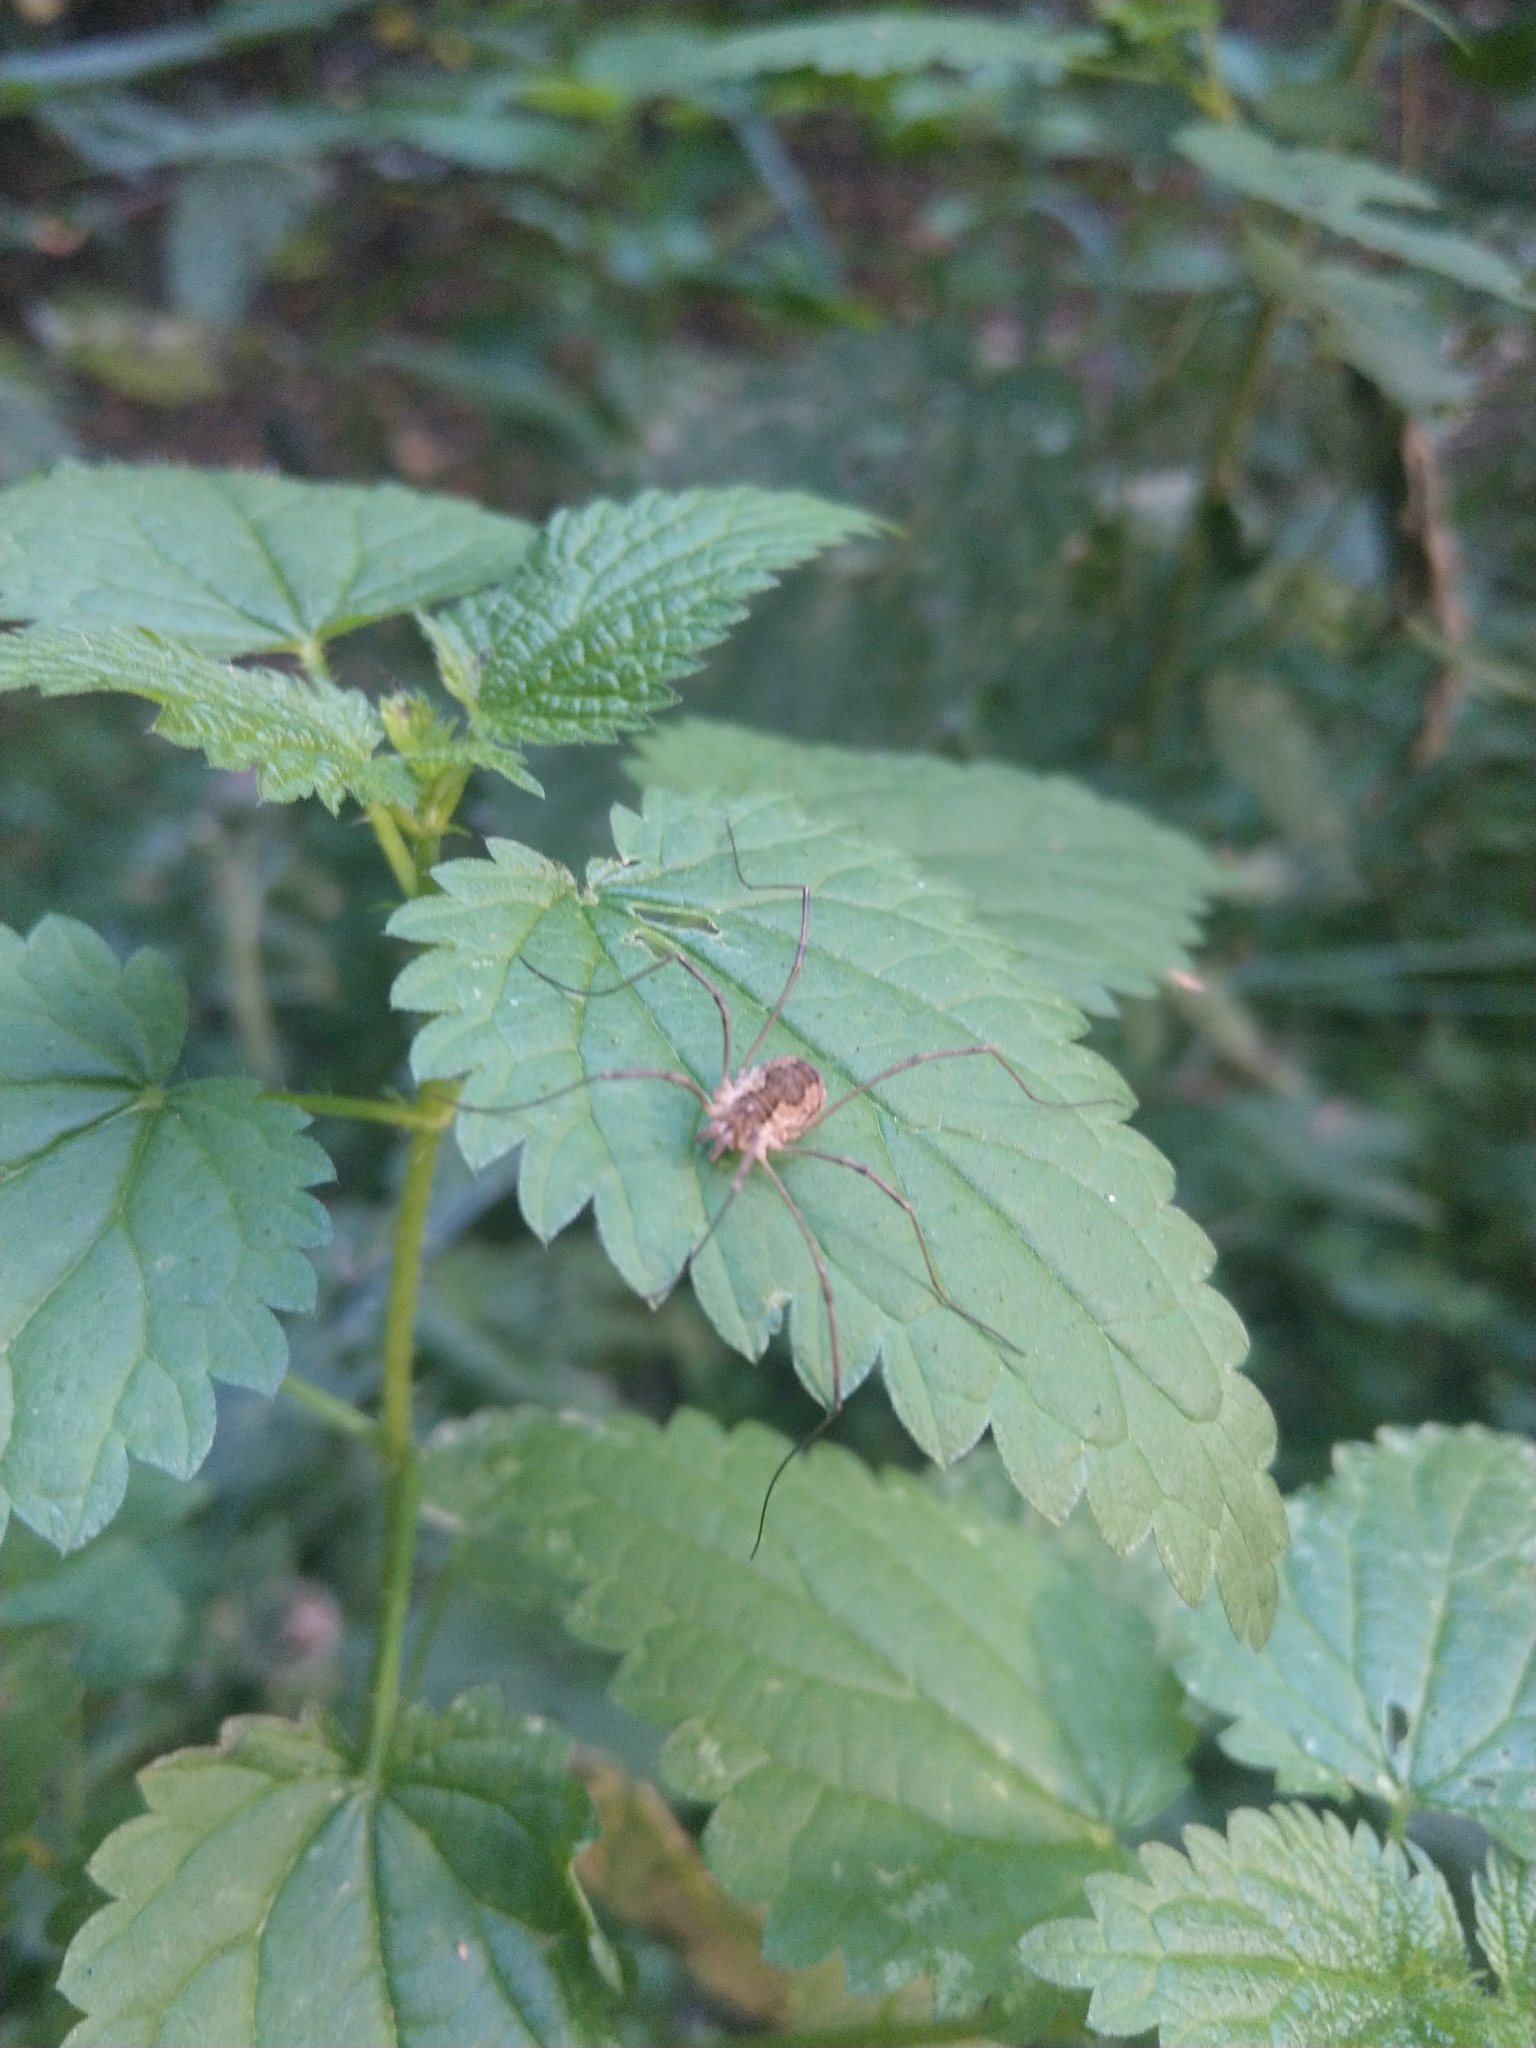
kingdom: Animalia
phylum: Arthropoda
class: Arachnida
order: Opiliones
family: Phalangiidae
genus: Phalangium
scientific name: Phalangium opilio
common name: Daddy longleg
